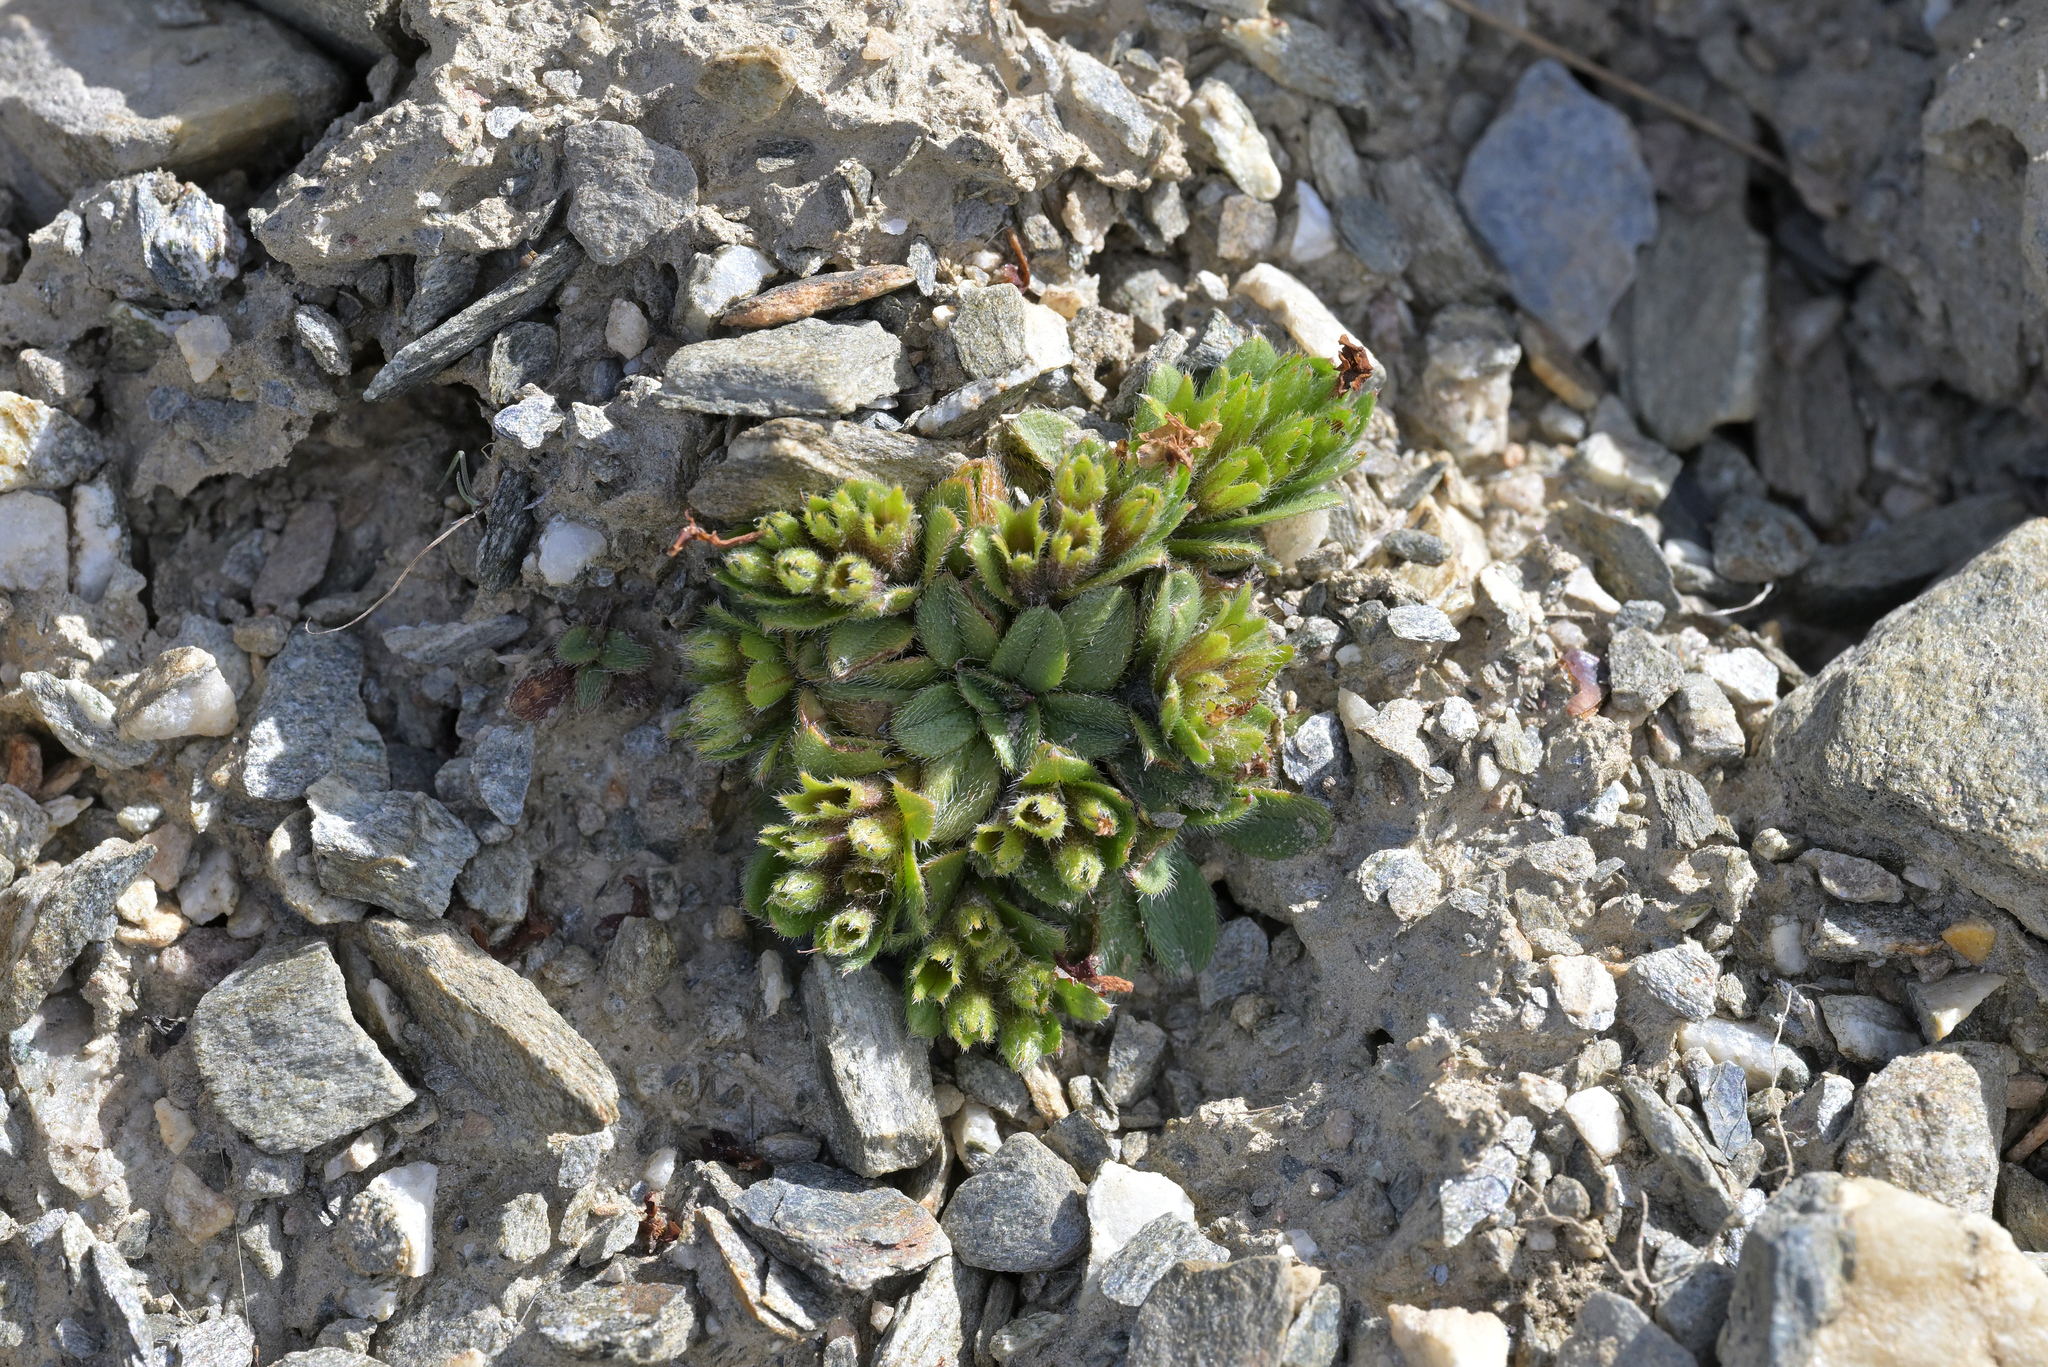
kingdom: Plantae
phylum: Tracheophyta
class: Magnoliopsida
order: Boraginales
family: Boraginaceae
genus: Myosotis
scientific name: Myosotis lyallii
